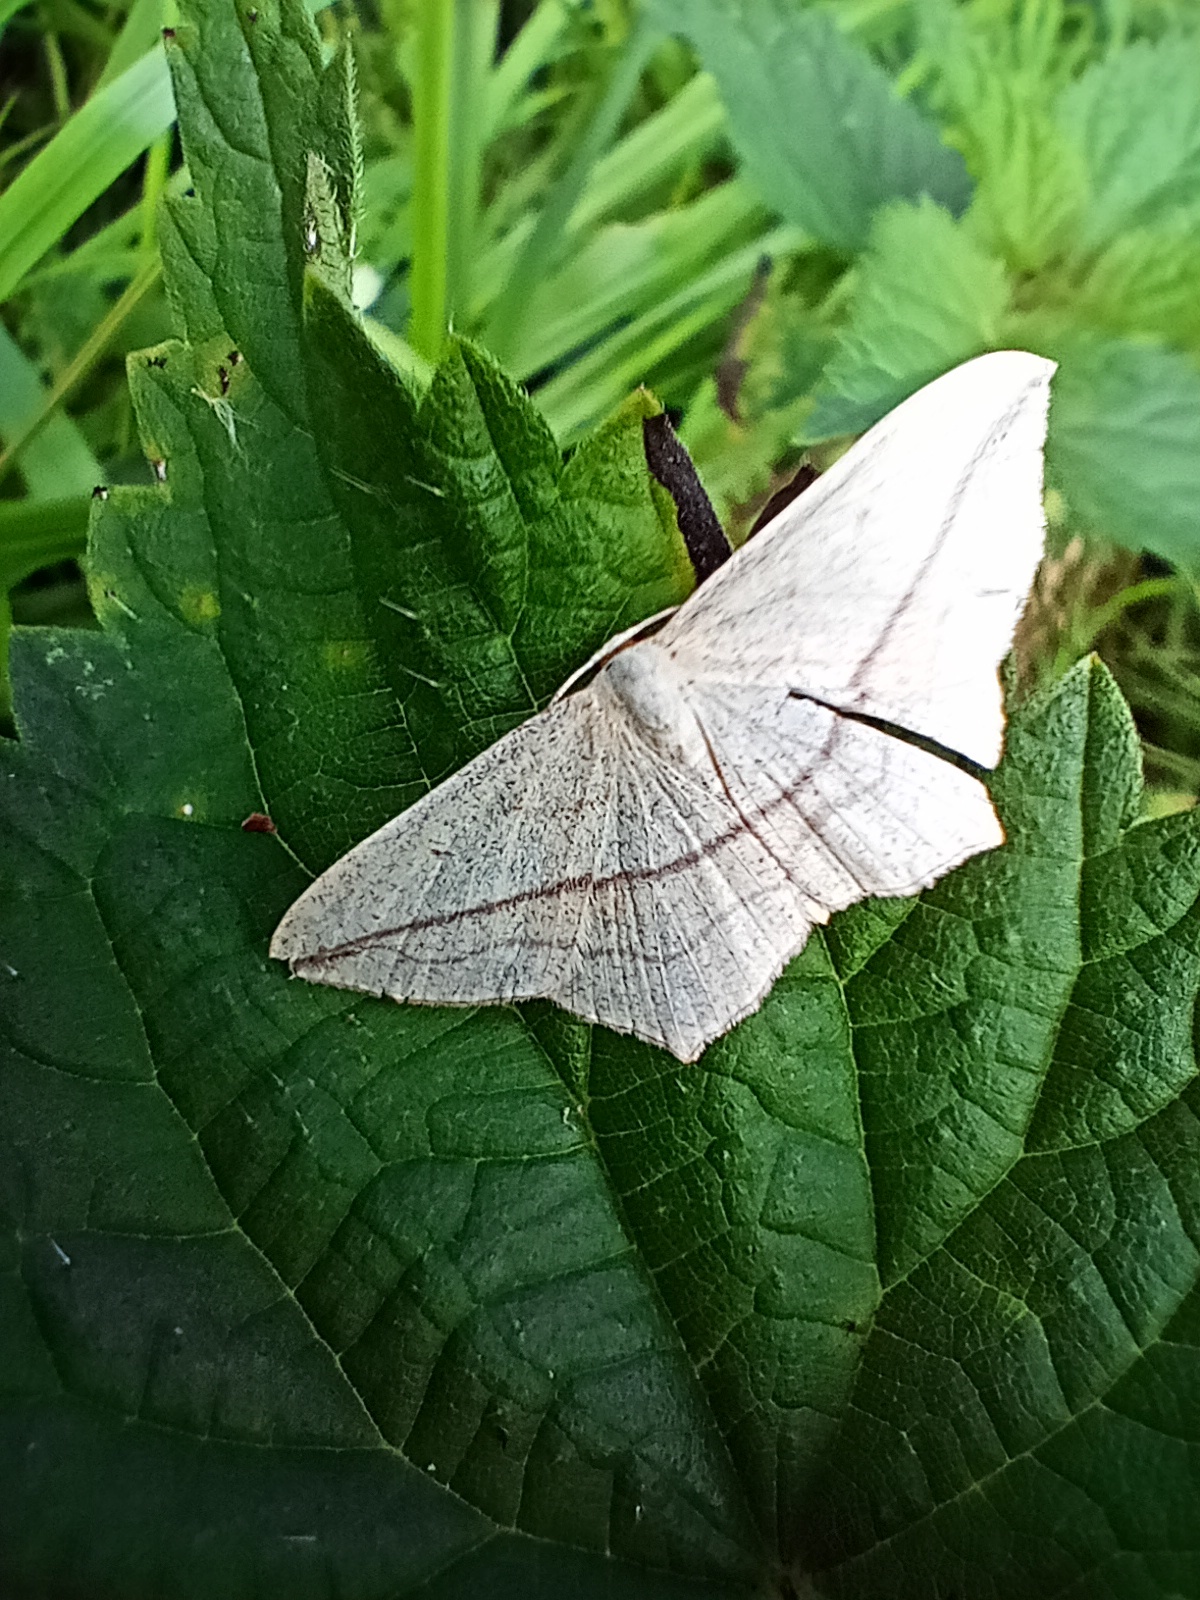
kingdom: Animalia
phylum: Arthropoda
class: Insecta
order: Lepidoptera
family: Geometridae
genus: Timandra
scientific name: Timandra comae
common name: Blood-vein
